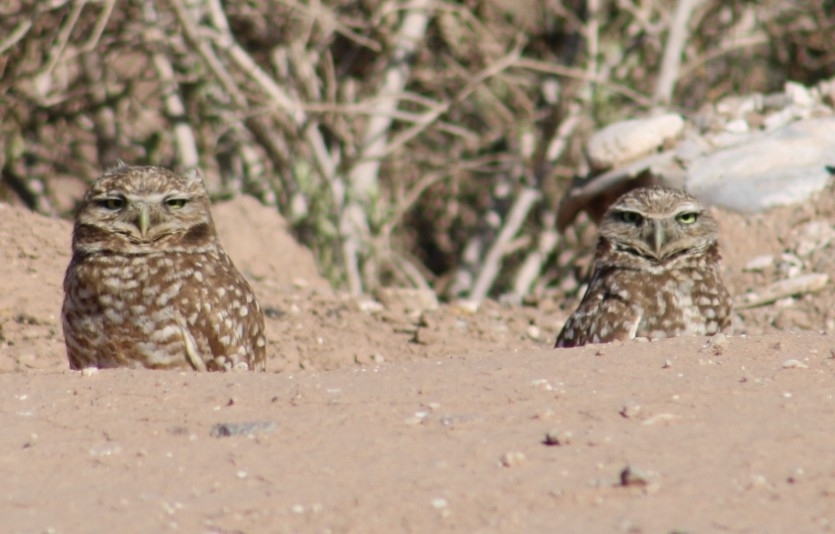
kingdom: Animalia
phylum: Chordata
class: Aves
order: Strigiformes
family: Strigidae
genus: Athene
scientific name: Athene cunicularia
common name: Burrowing owl
